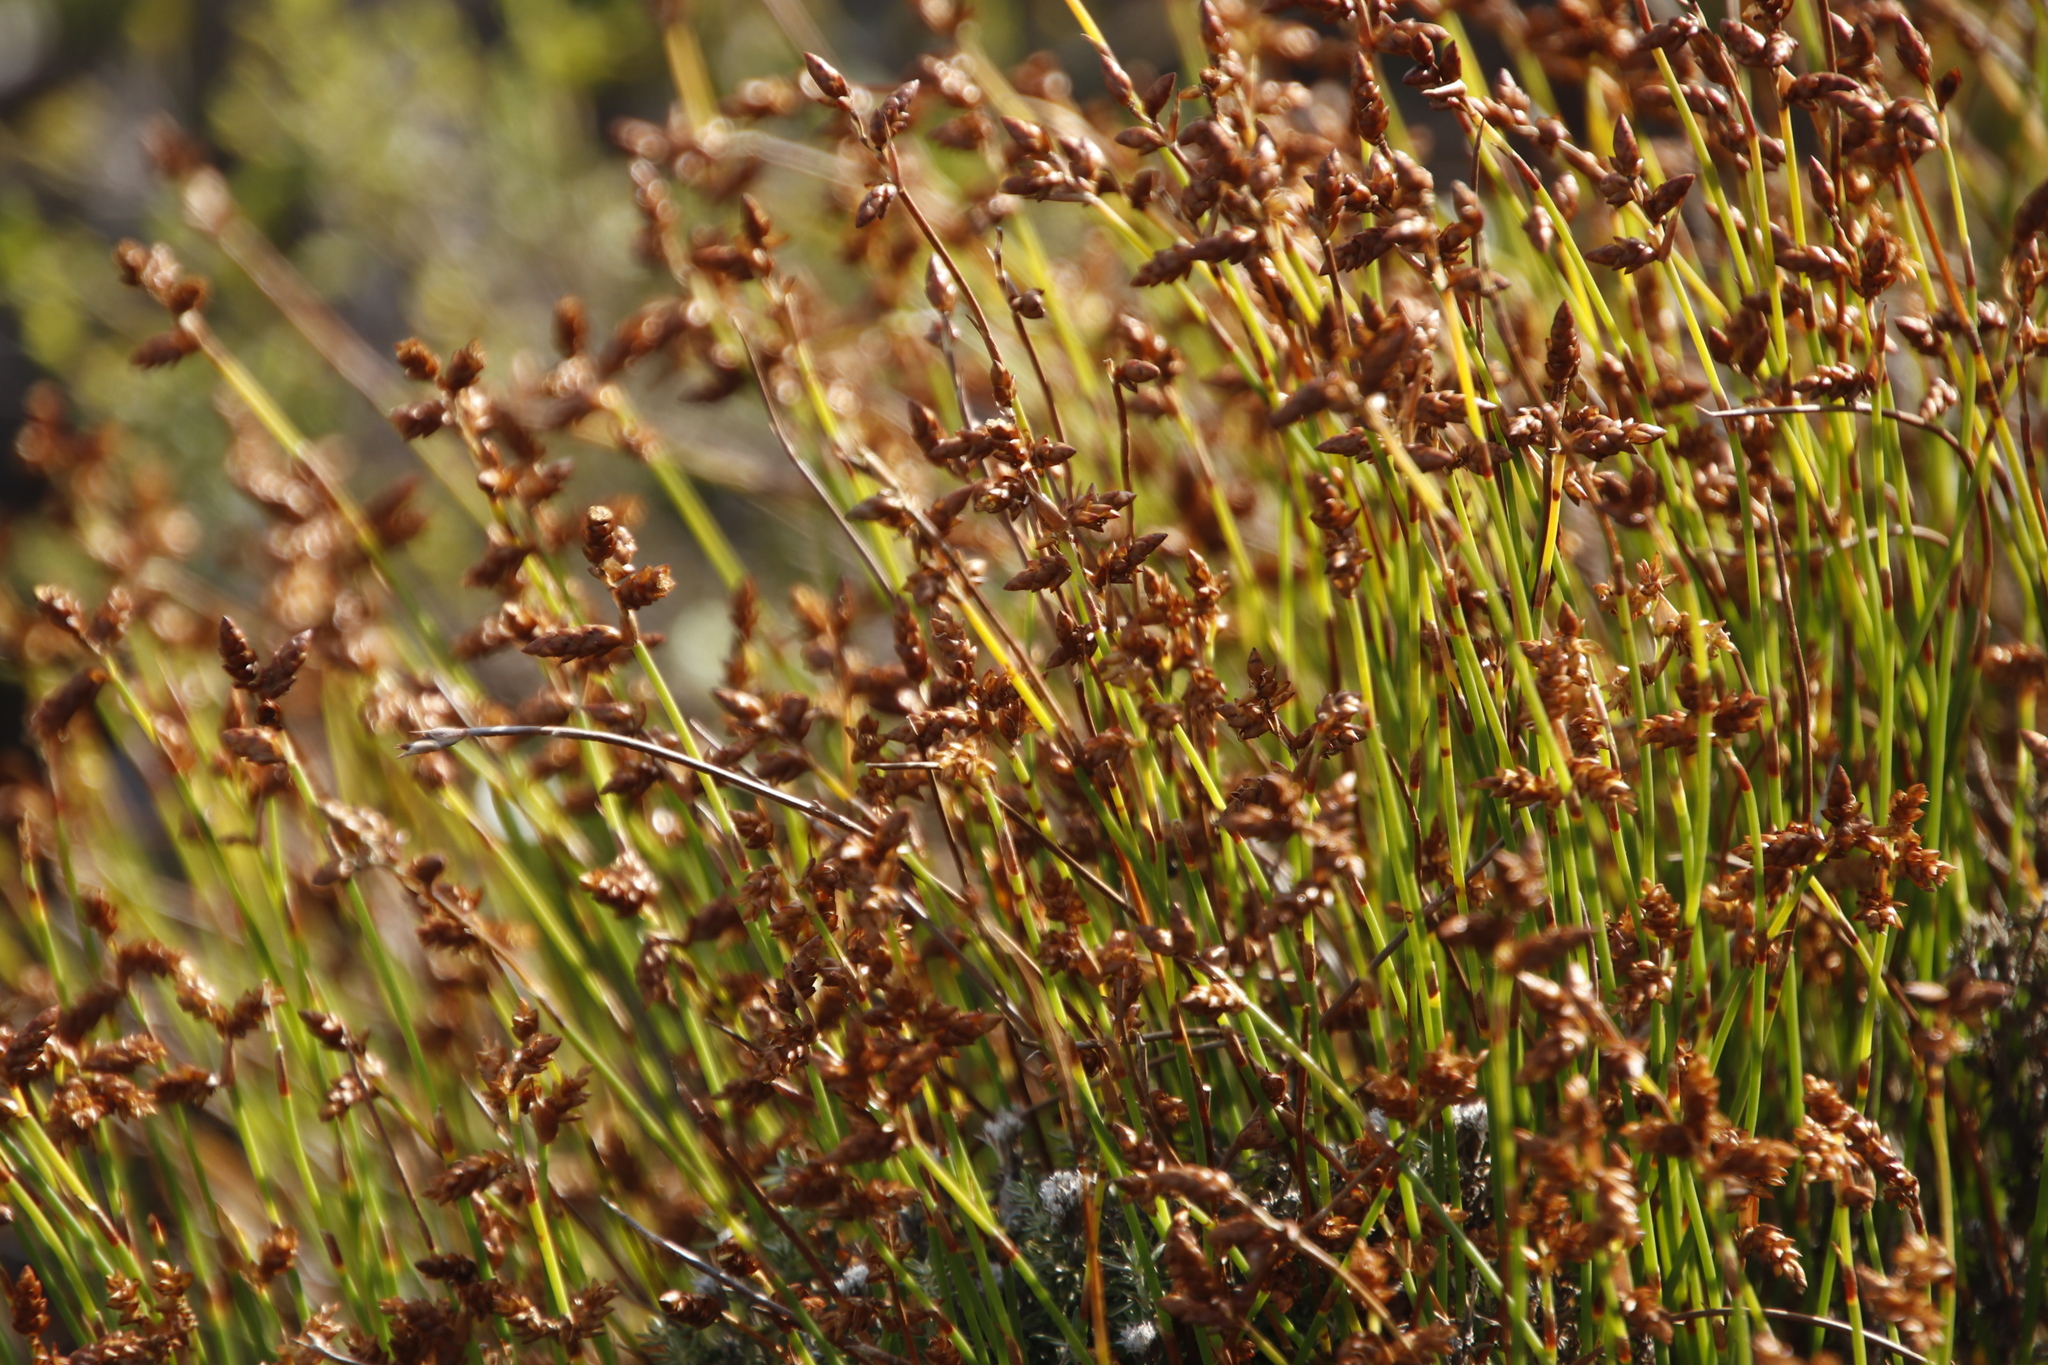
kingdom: Plantae
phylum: Tracheophyta
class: Liliopsida
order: Poales
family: Restionaceae
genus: Mastersiella
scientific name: Mastersiella digitata
